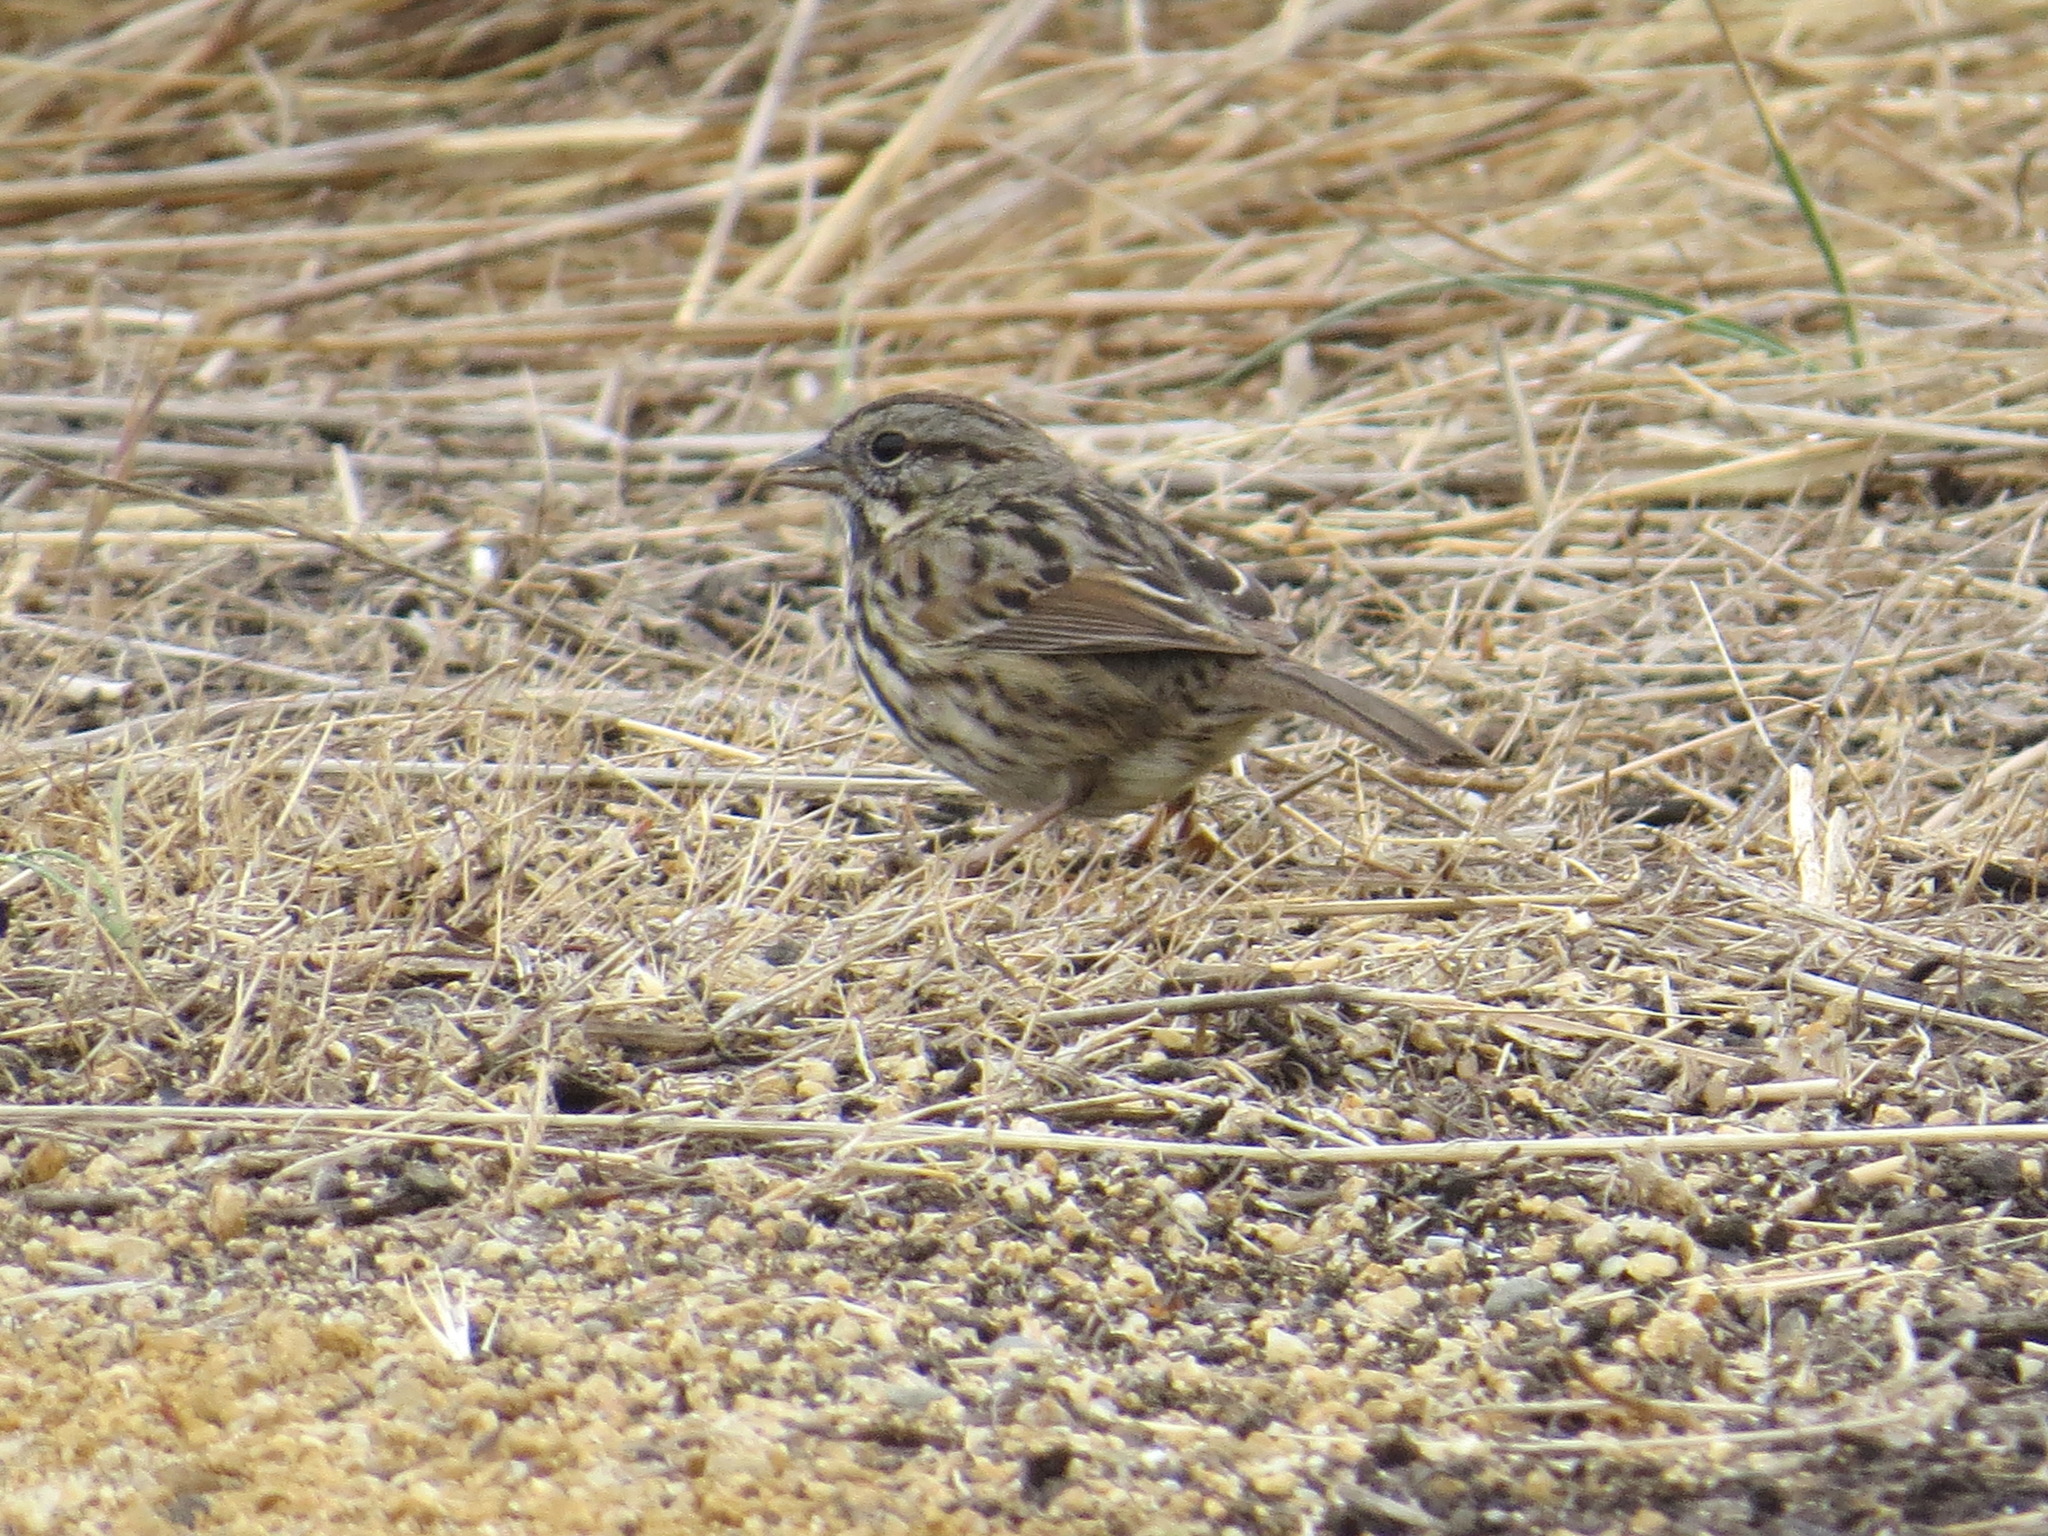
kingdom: Animalia
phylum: Chordata
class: Aves
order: Passeriformes
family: Passerellidae
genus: Melospiza
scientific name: Melospiza melodia
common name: Song sparrow
